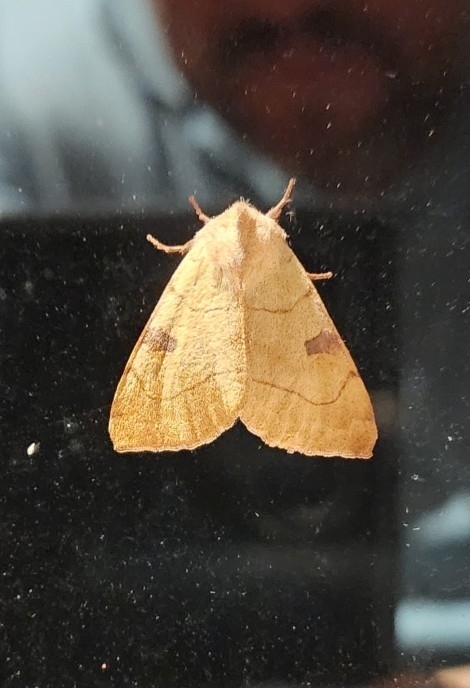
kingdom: Animalia
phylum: Arthropoda
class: Insecta
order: Lepidoptera
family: Noctuidae
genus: Choephora
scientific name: Choephora fungorum
